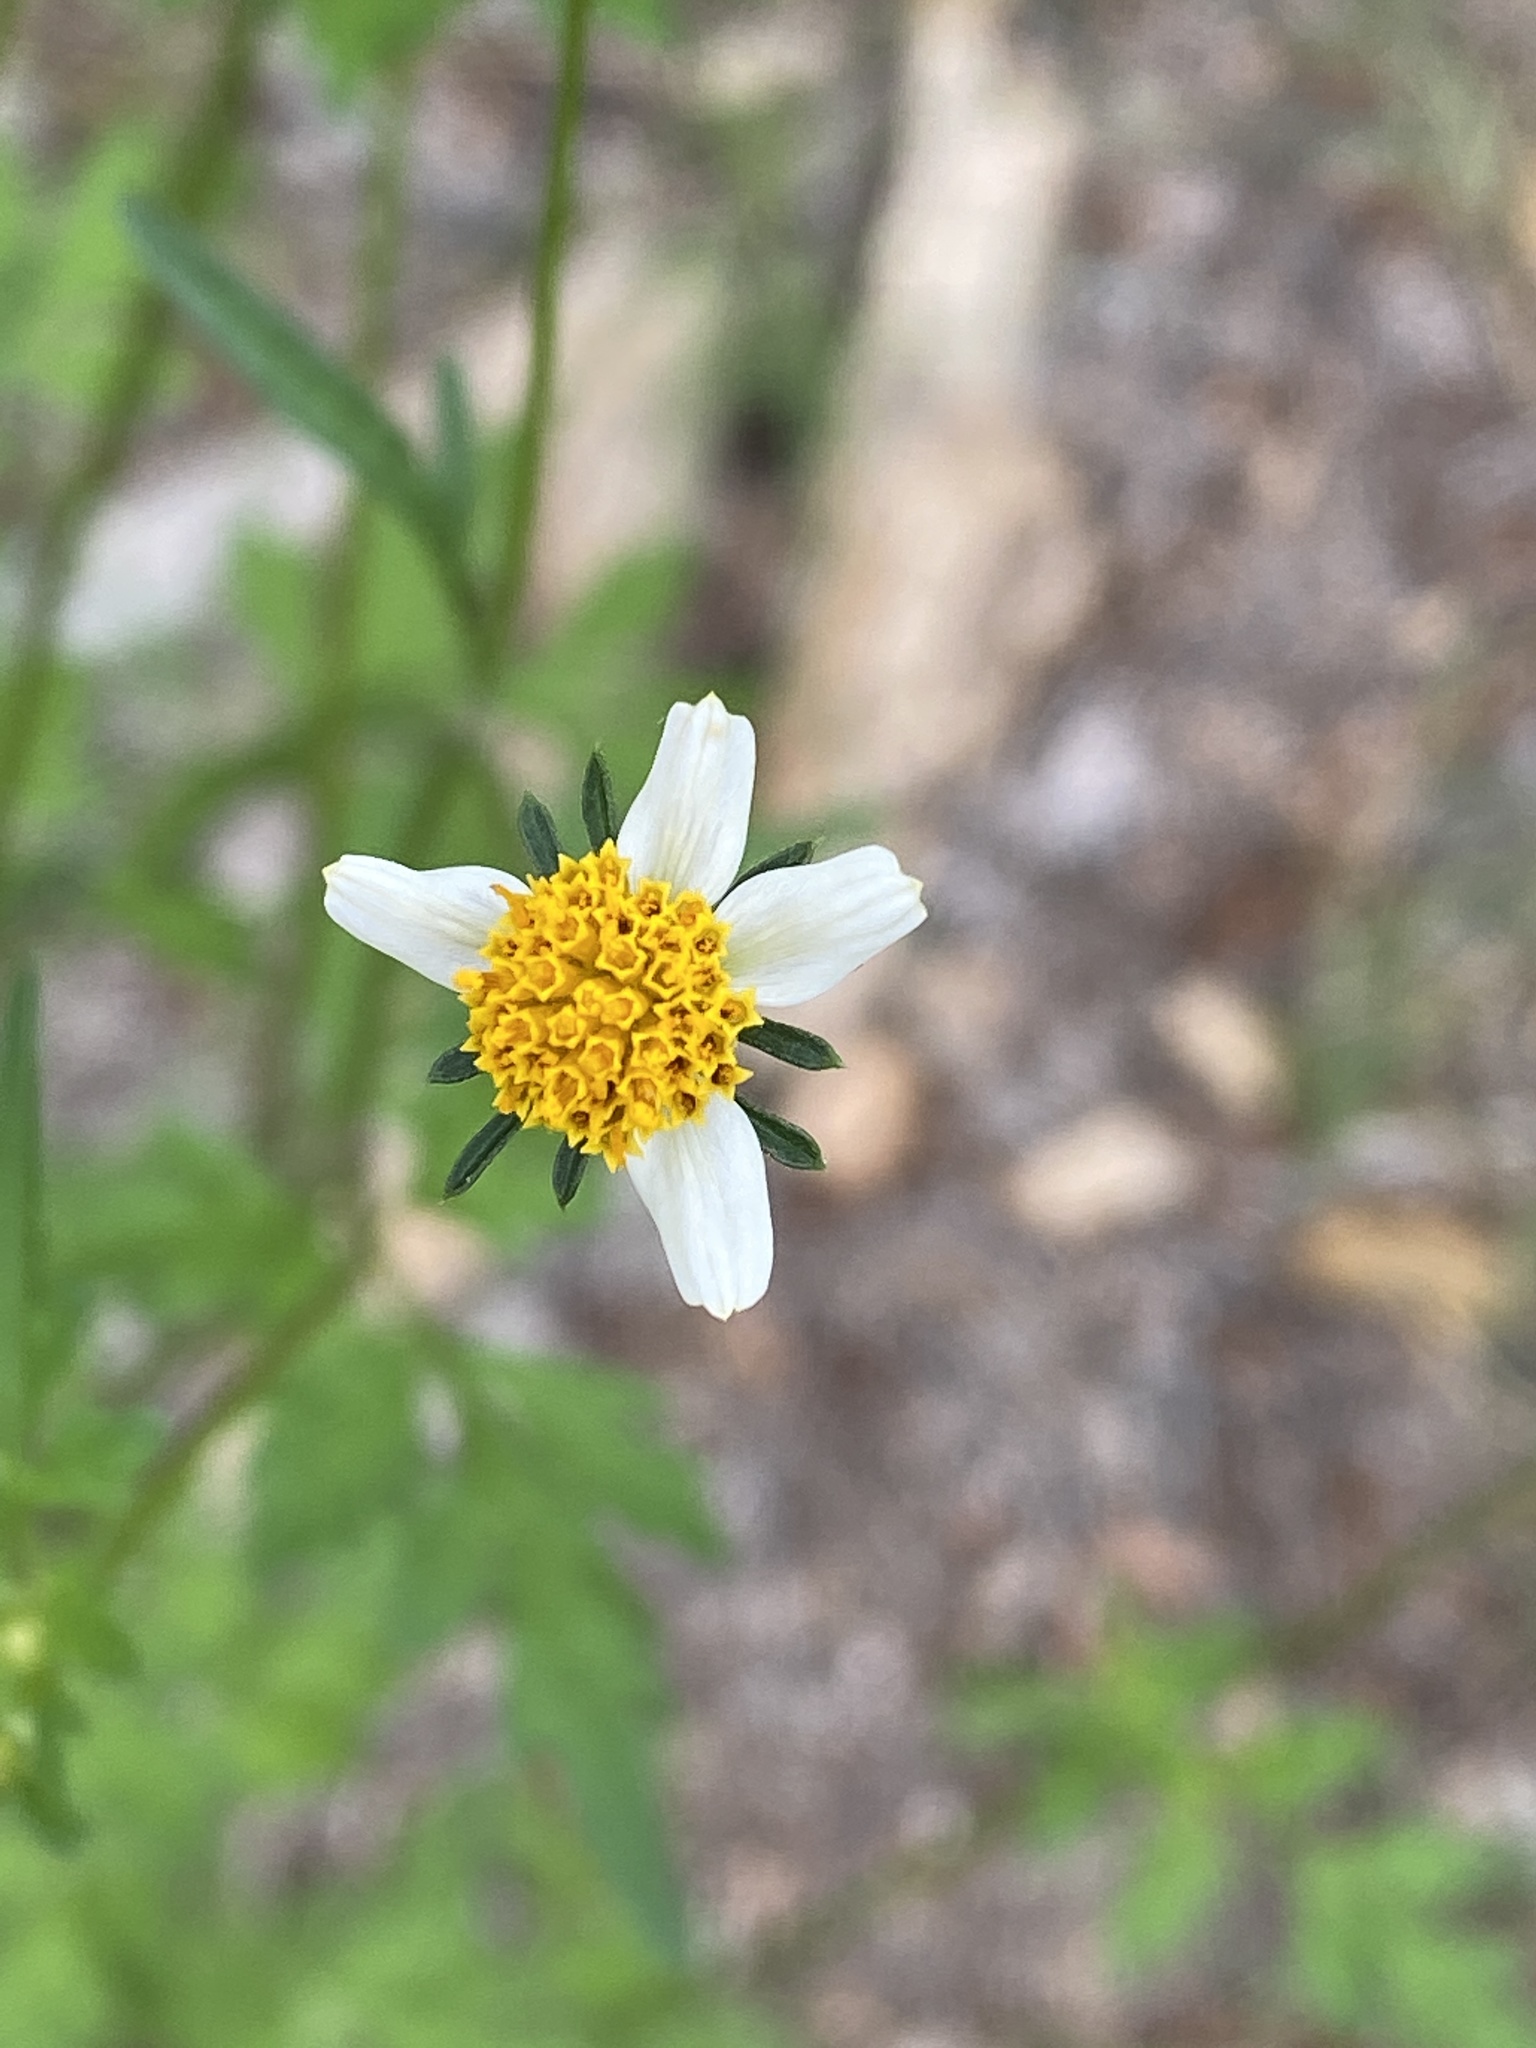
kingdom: Plantae
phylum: Tracheophyta
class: Magnoliopsida
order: Asterales
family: Asteraceae
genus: Bidens
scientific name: Bidens bigelovii
